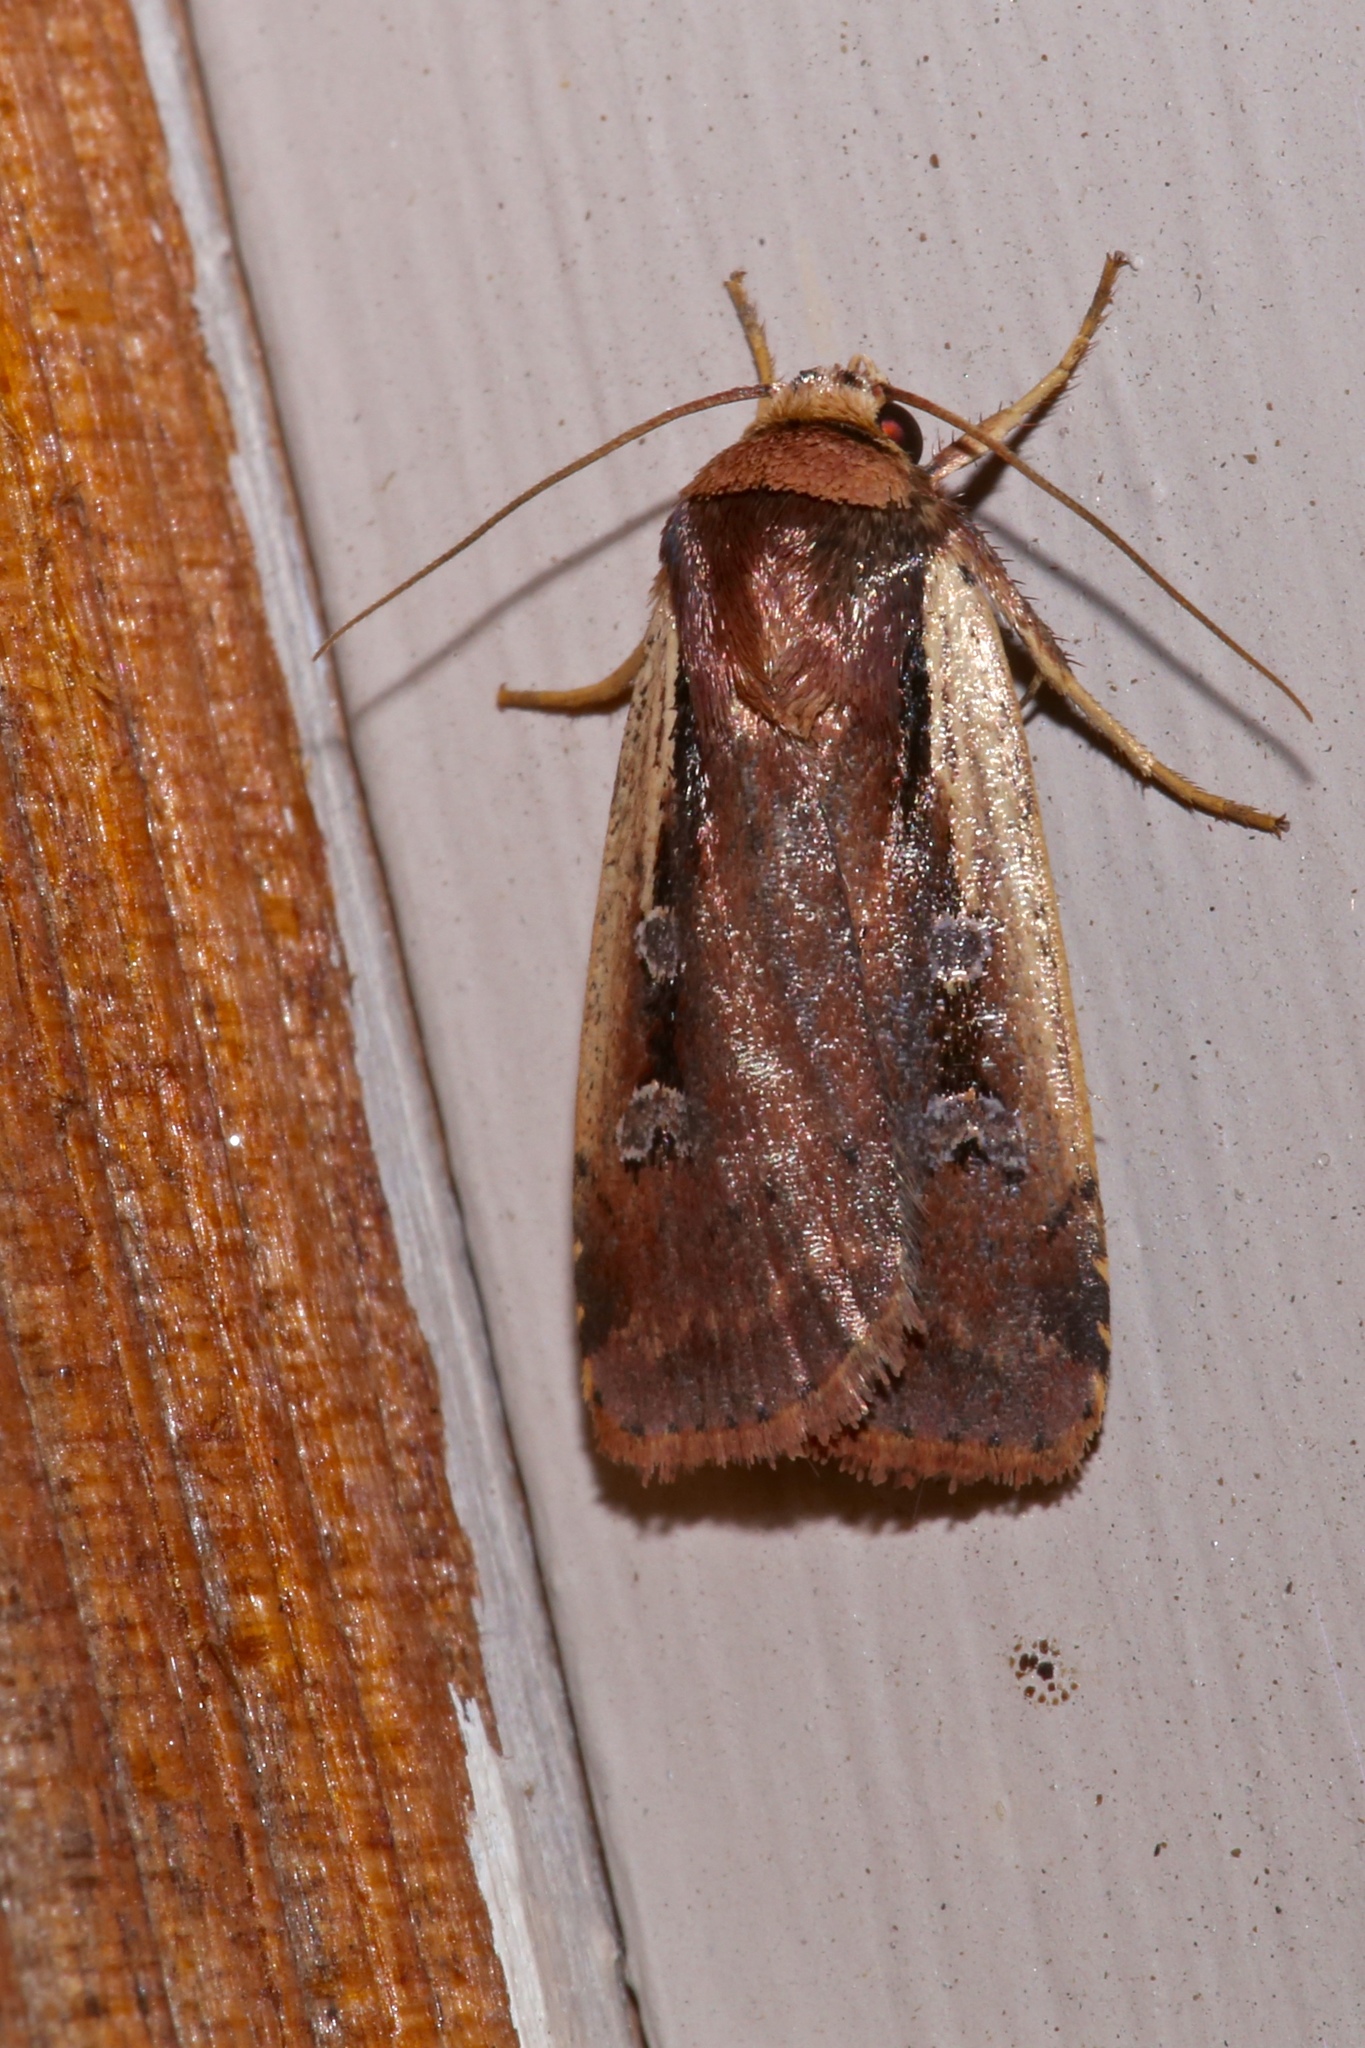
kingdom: Animalia
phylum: Arthropoda
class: Insecta
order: Lepidoptera
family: Noctuidae
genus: Ochropleura
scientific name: Ochropleura implecta
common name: Flame-shouldered dart
